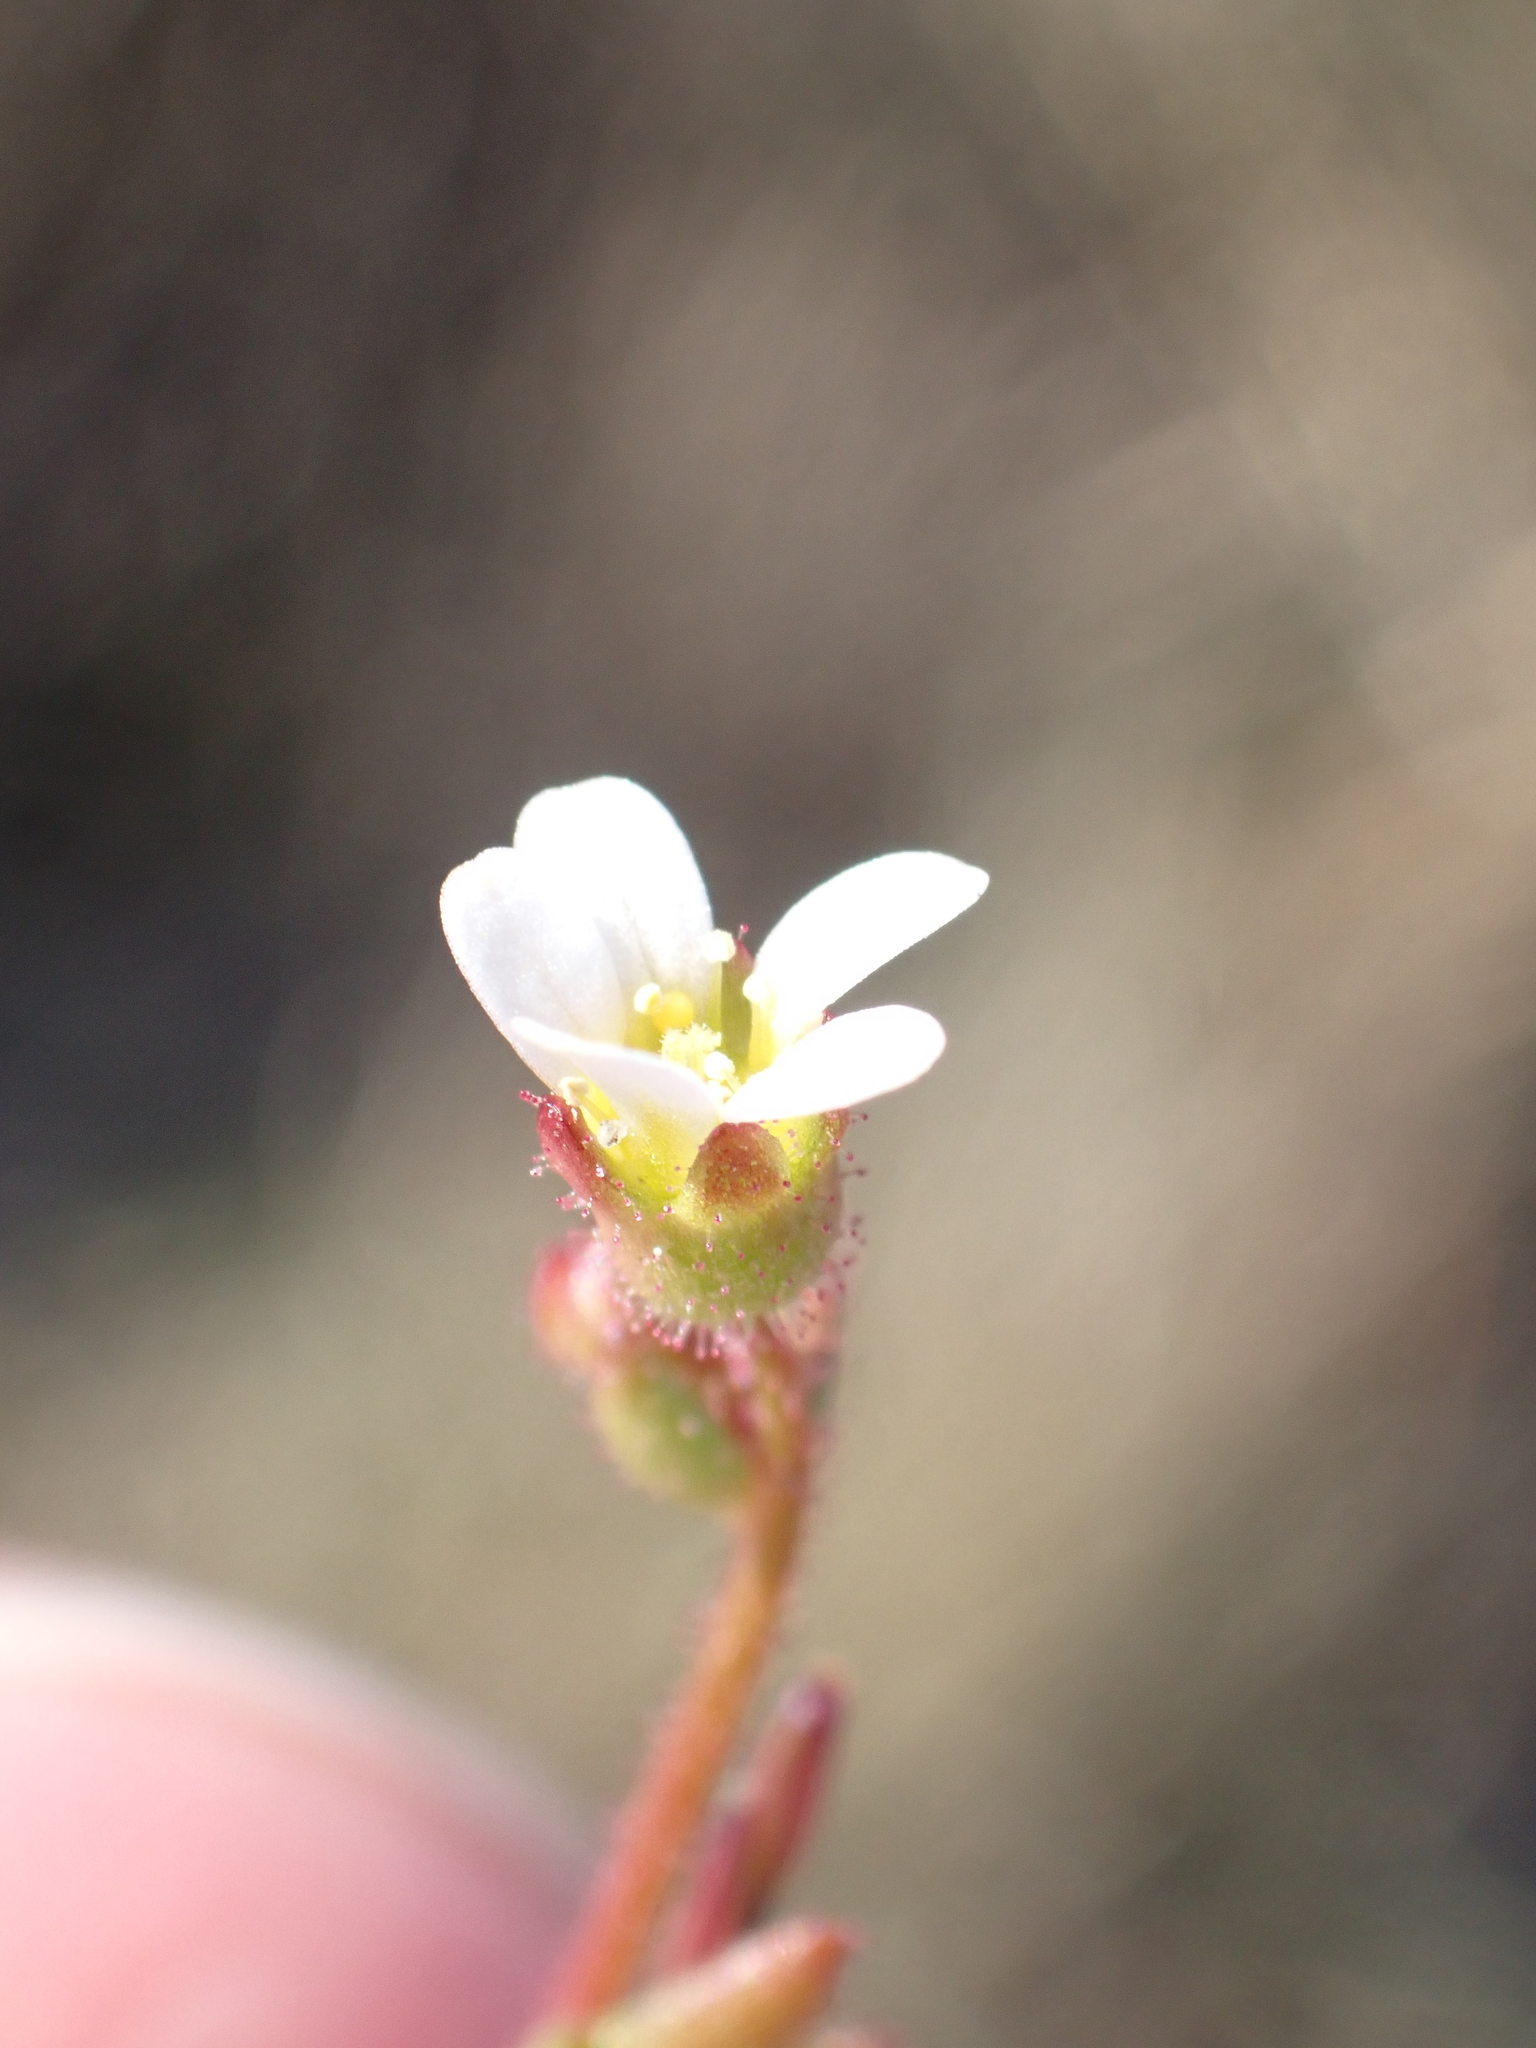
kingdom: Plantae
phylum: Tracheophyta
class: Magnoliopsida
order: Saxifragales
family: Saxifragaceae
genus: Saxifraga
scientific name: Saxifraga tridactylites
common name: Rue-leaved saxifrage
